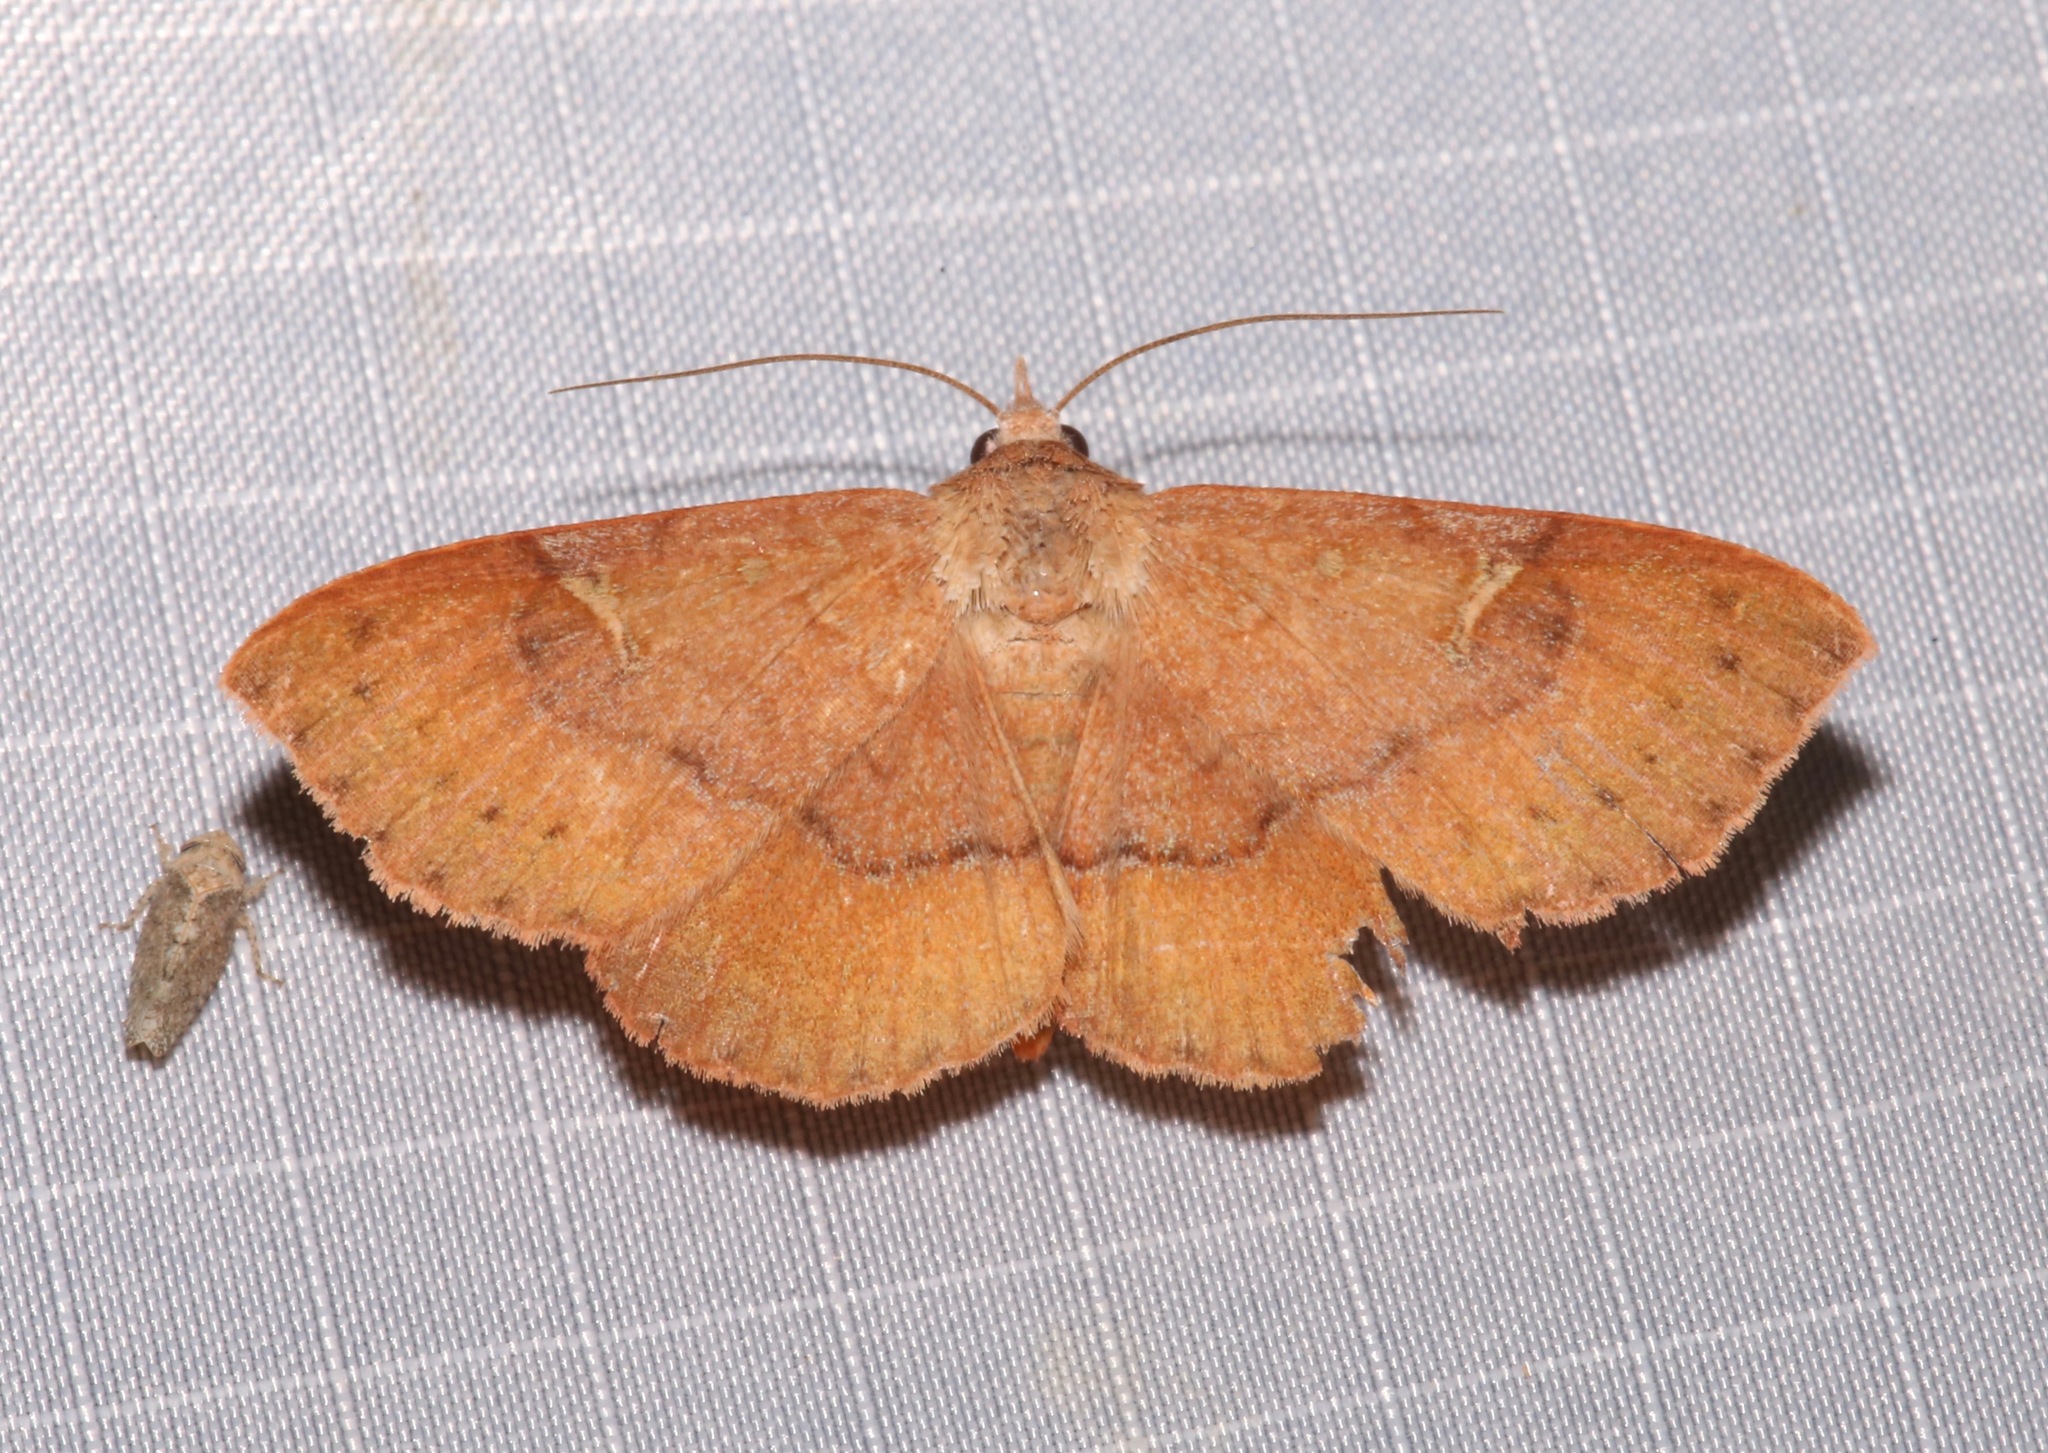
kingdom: Animalia
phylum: Arthropoda
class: Insecta
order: Lepidoptera
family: Erebidae
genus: Azeta
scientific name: Azeta schausi
